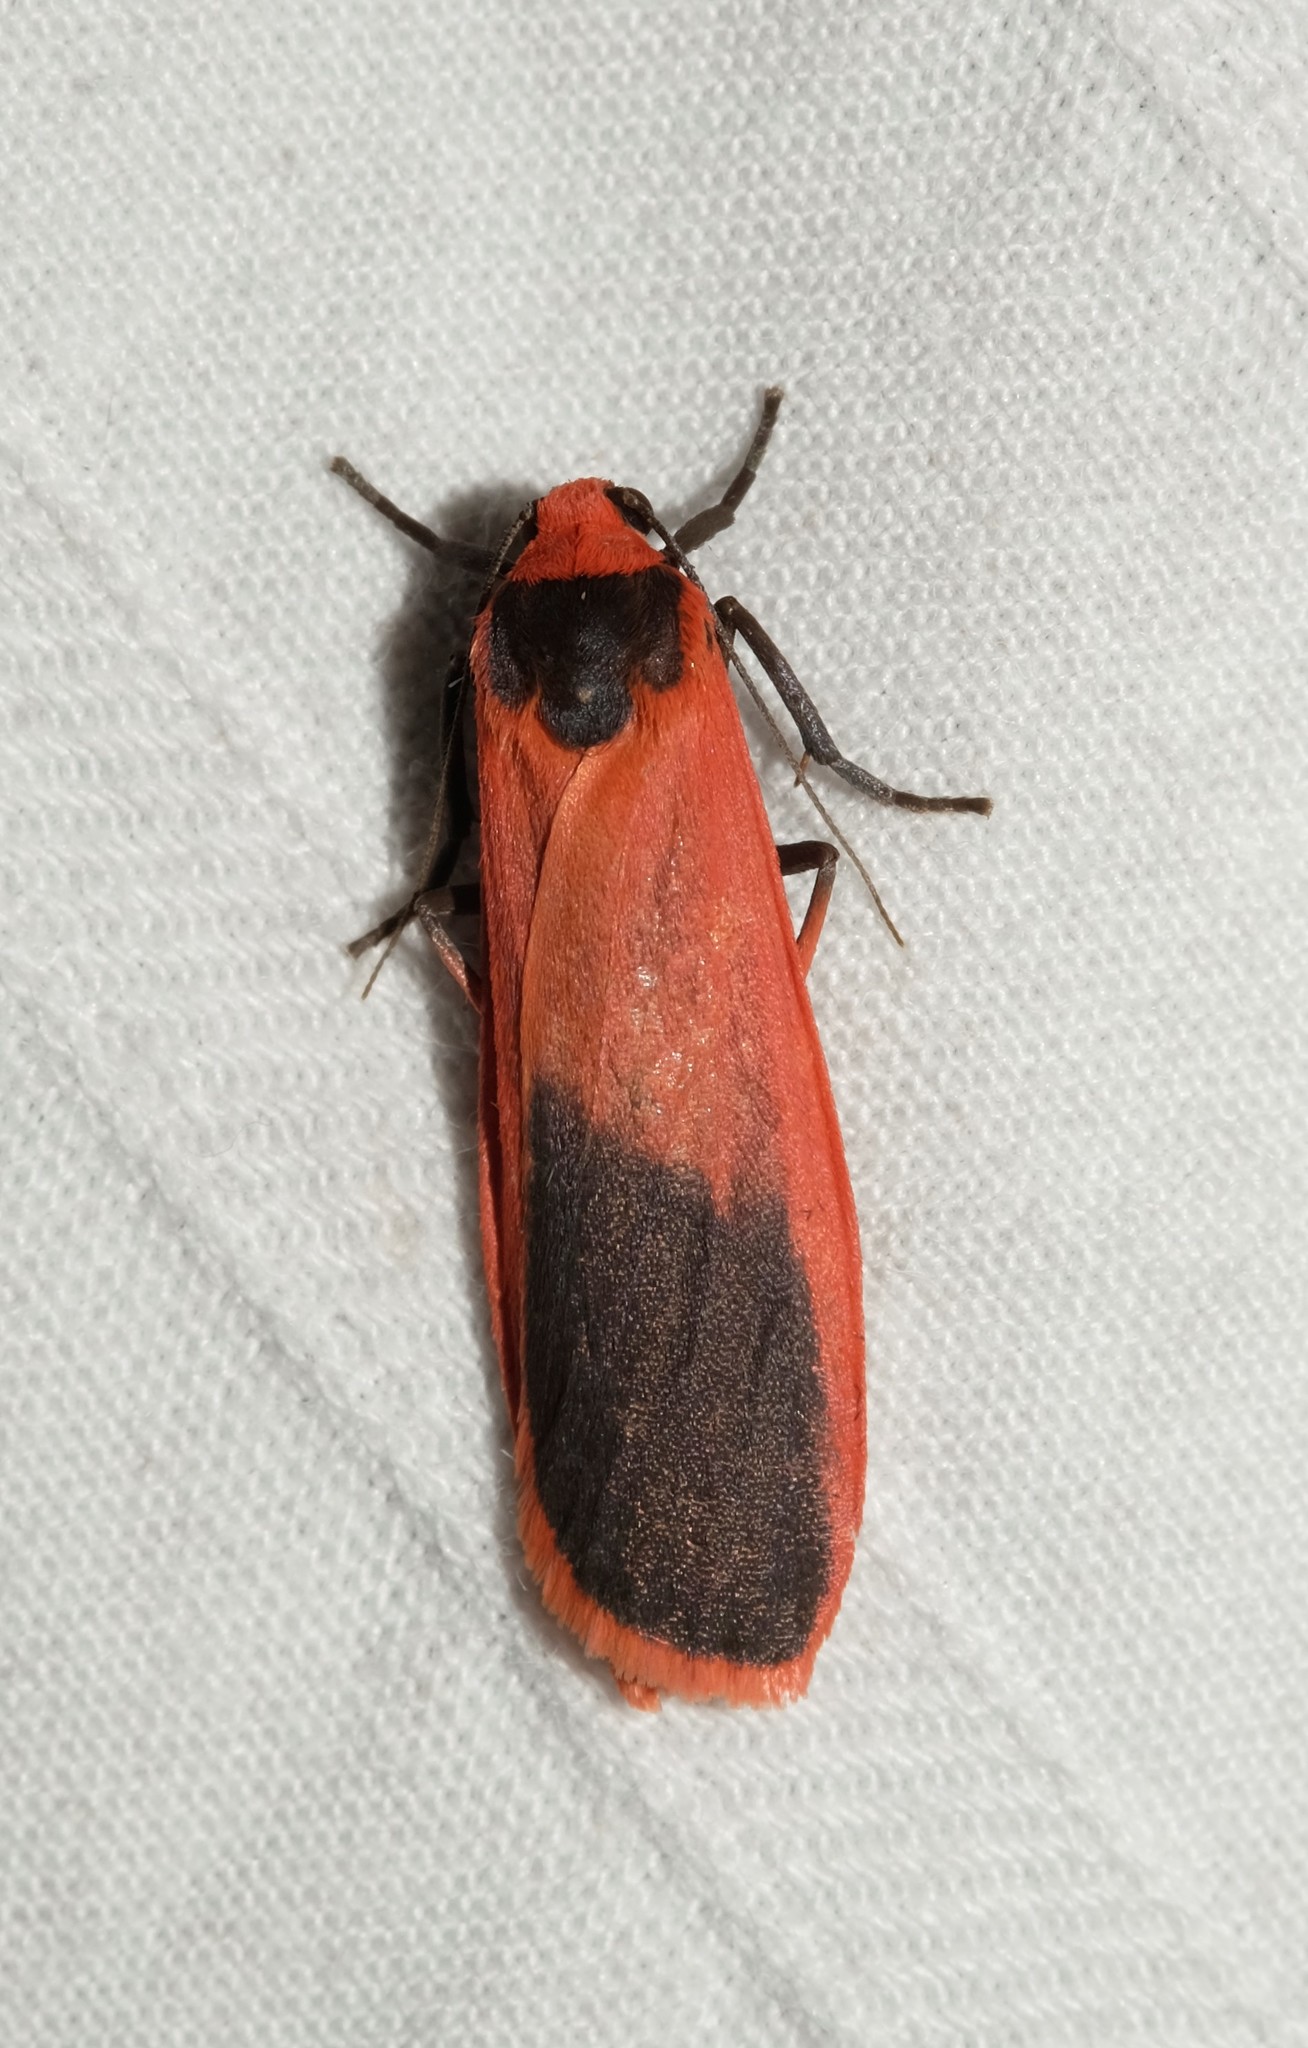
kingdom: Animalia
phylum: Arthropoda
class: Insecta
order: Lepidoptera
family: Erebidae
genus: Scoliacma
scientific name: Scoliacma bicolora
